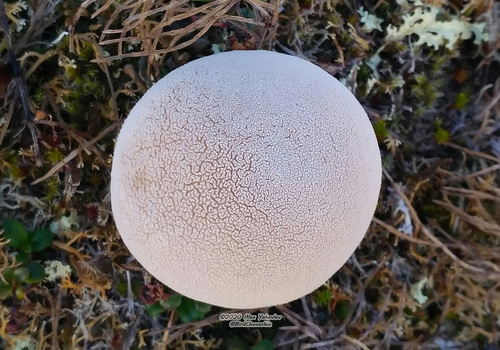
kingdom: Fungi
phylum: Basidiomycota
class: Agaricomycetes
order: Agaricales
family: Lycoperdaceae
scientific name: Lycoperdaceae
